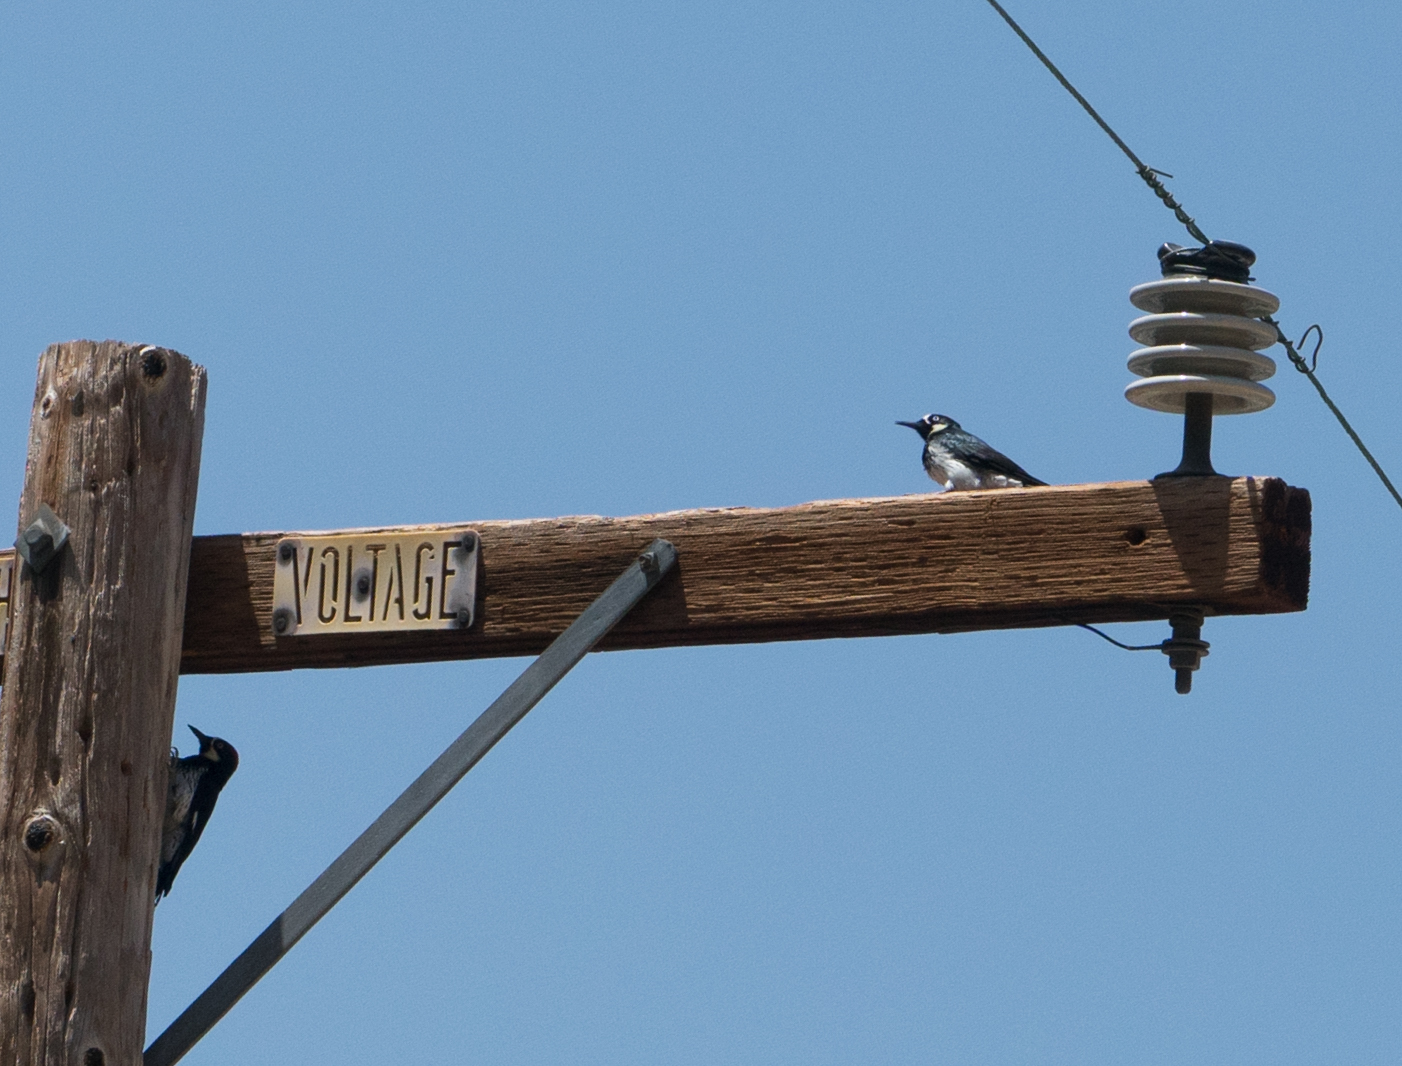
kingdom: Animalia
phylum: Chordata
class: Aves
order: Piciformes
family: Picidae
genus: Melanerpes
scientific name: Melanerpes formicivorus
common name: Acorn woodpecker
